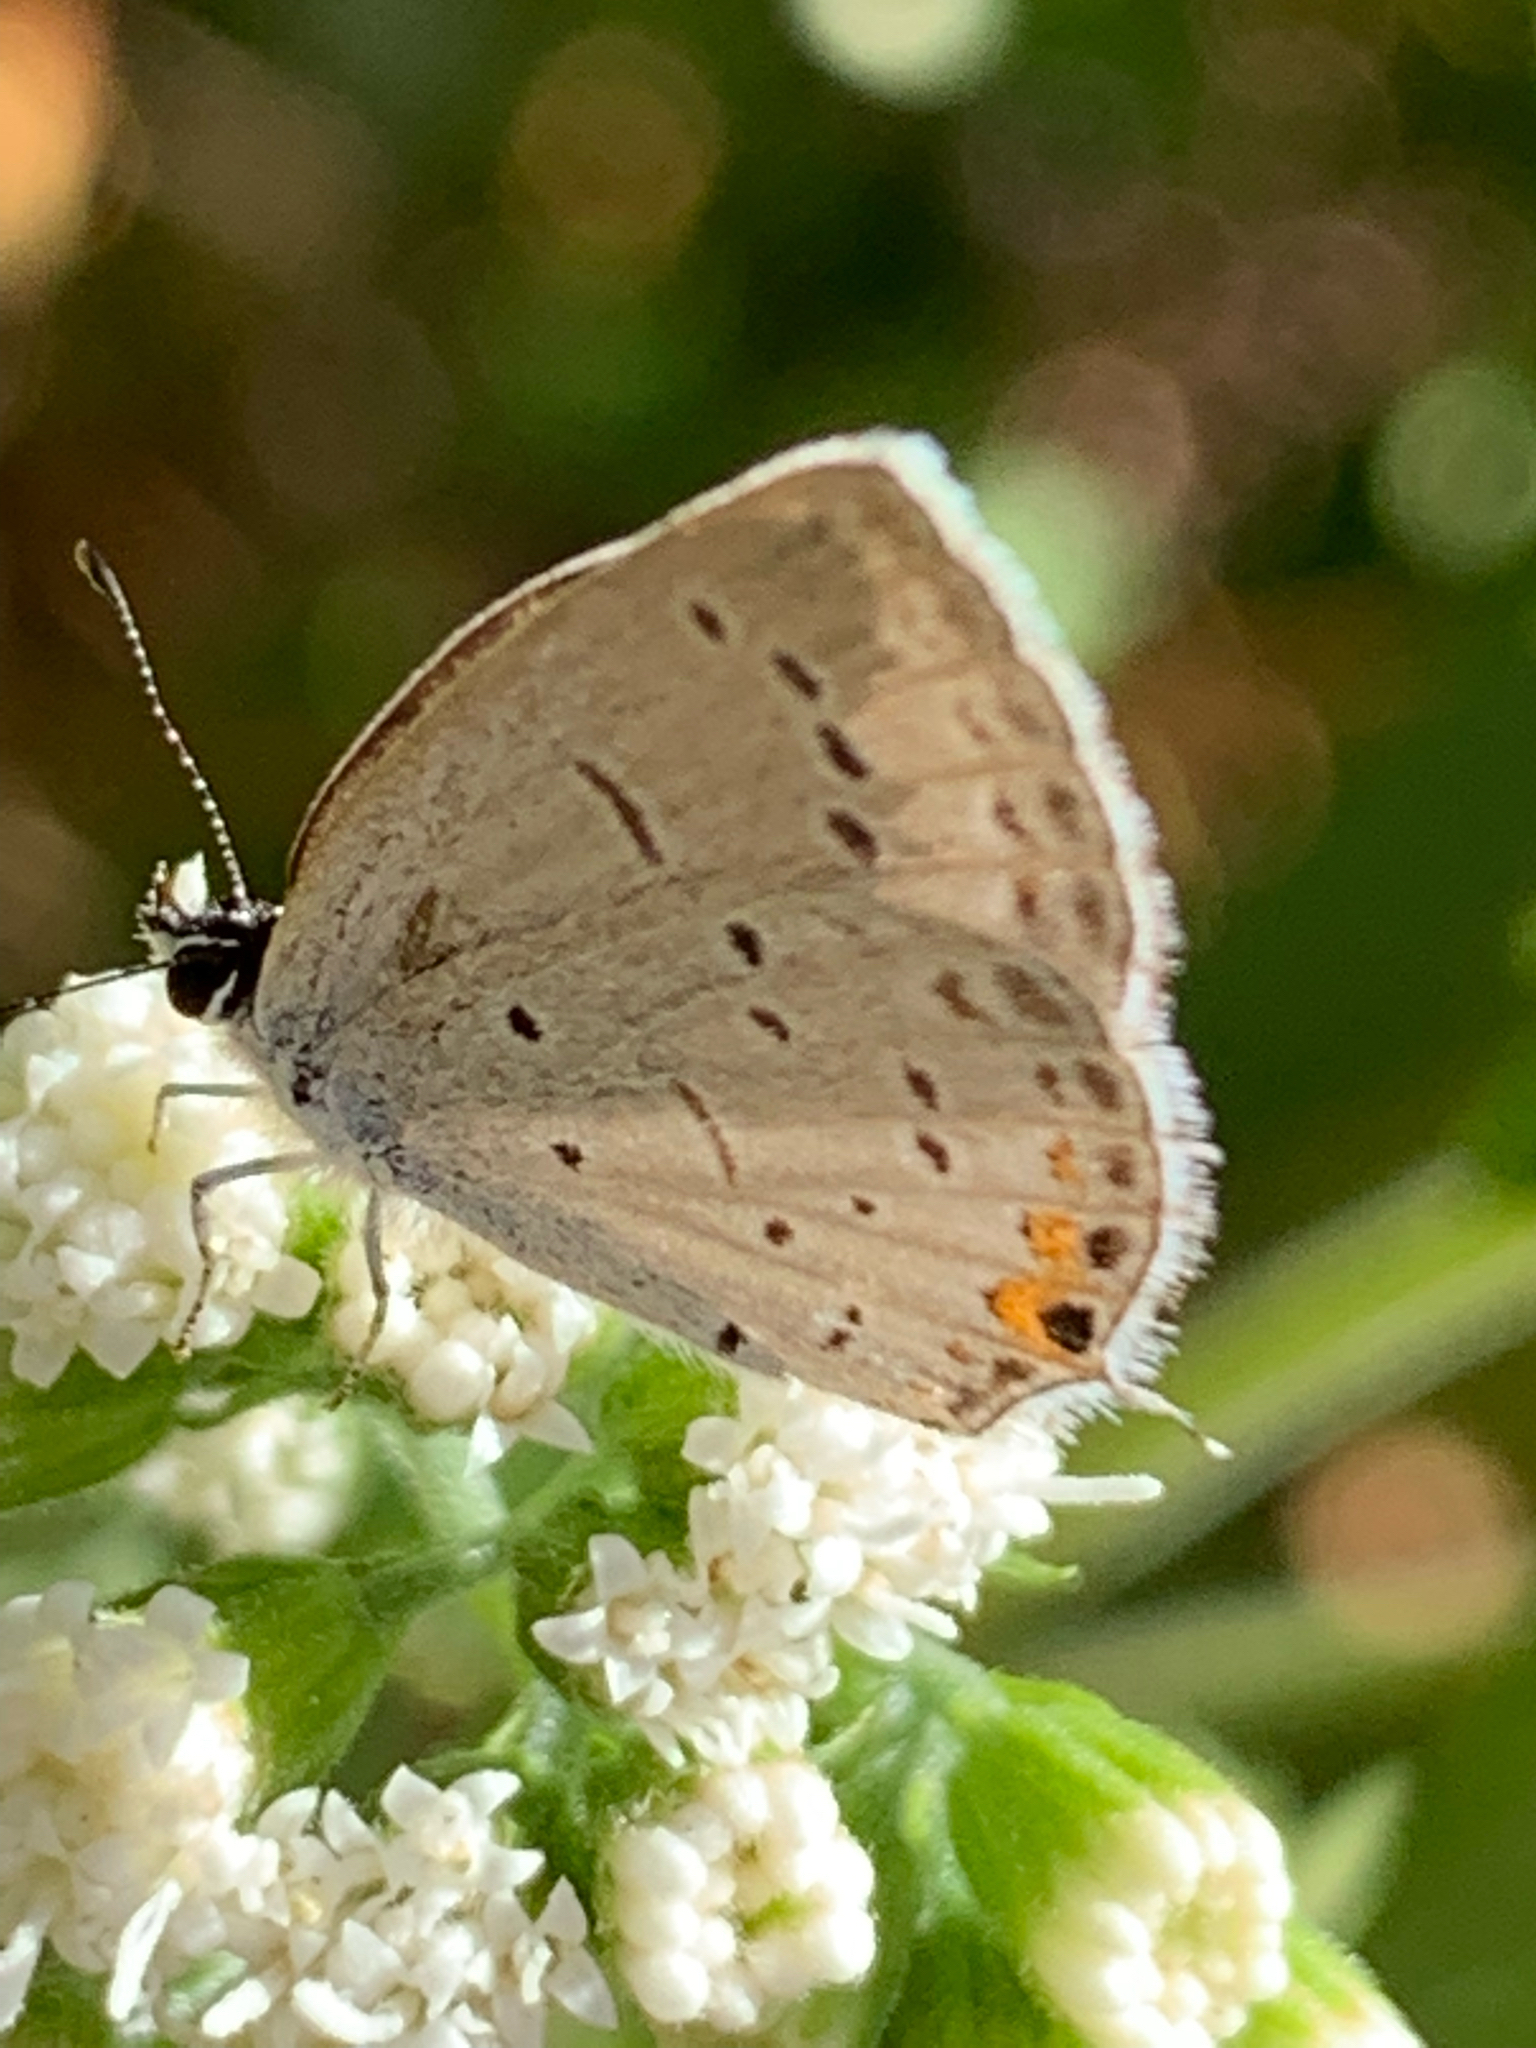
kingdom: Animalia
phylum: Arthropoda
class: Insecta
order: Lepidoptera
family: Lycaenidae
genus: Elkalyce
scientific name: Elkalyce comyntas
